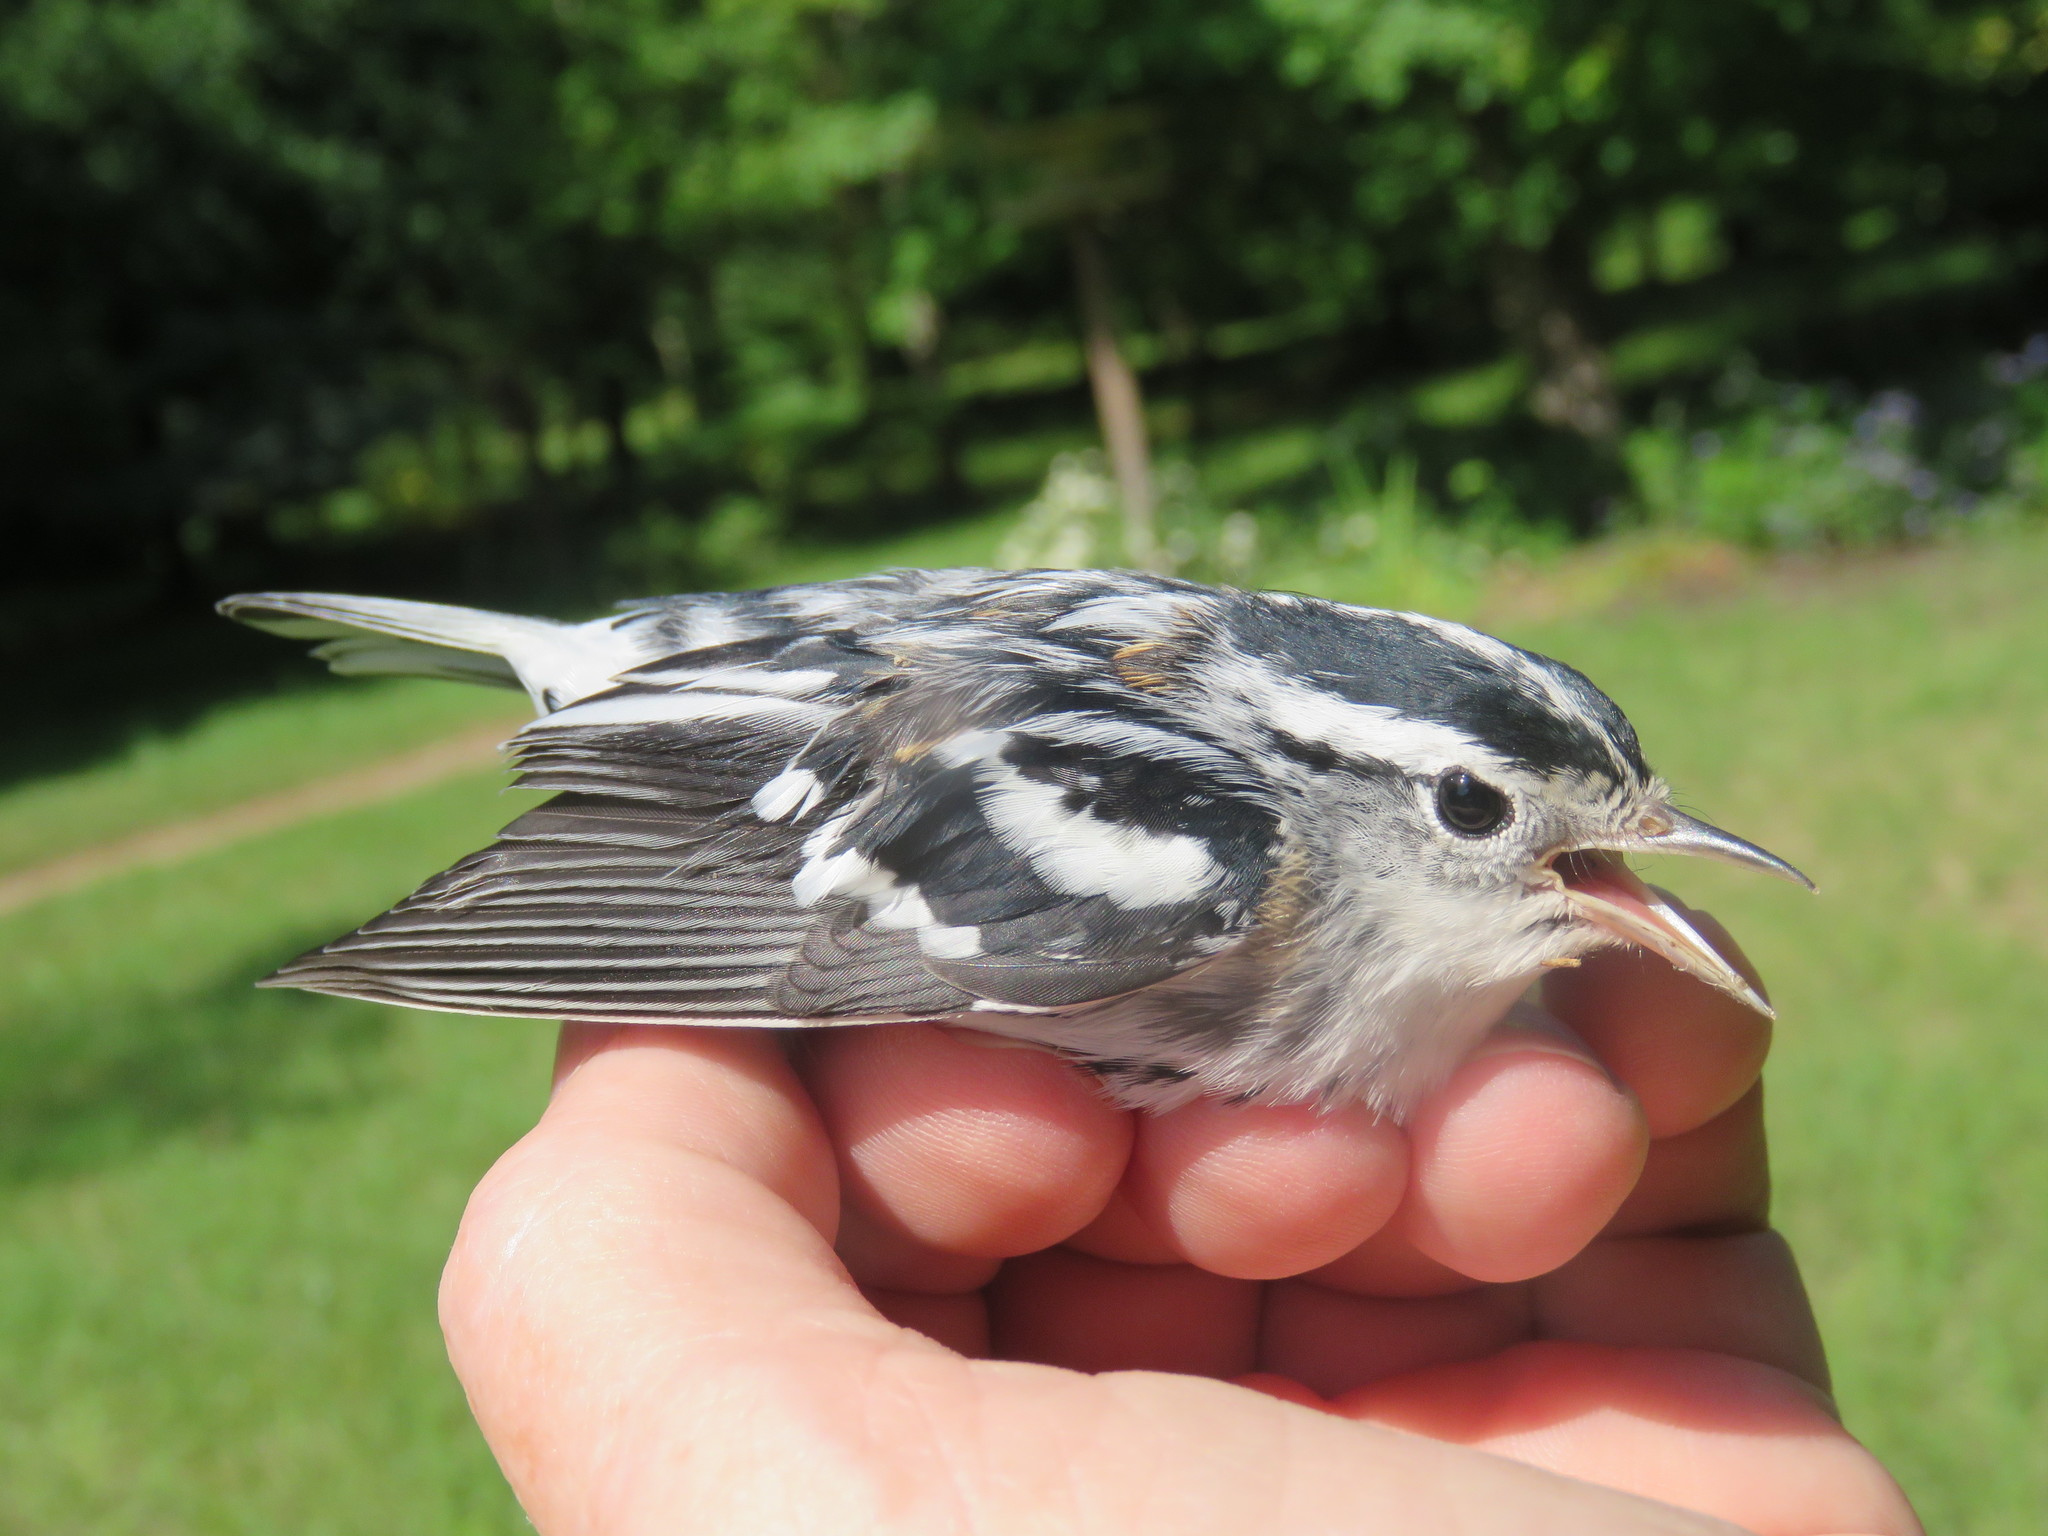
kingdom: Animalia
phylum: Chordata
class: Aves
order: Passeriformes
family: Parulidae
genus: Mniotilta
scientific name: Mniotilta varia
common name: Black-and-white warbler
